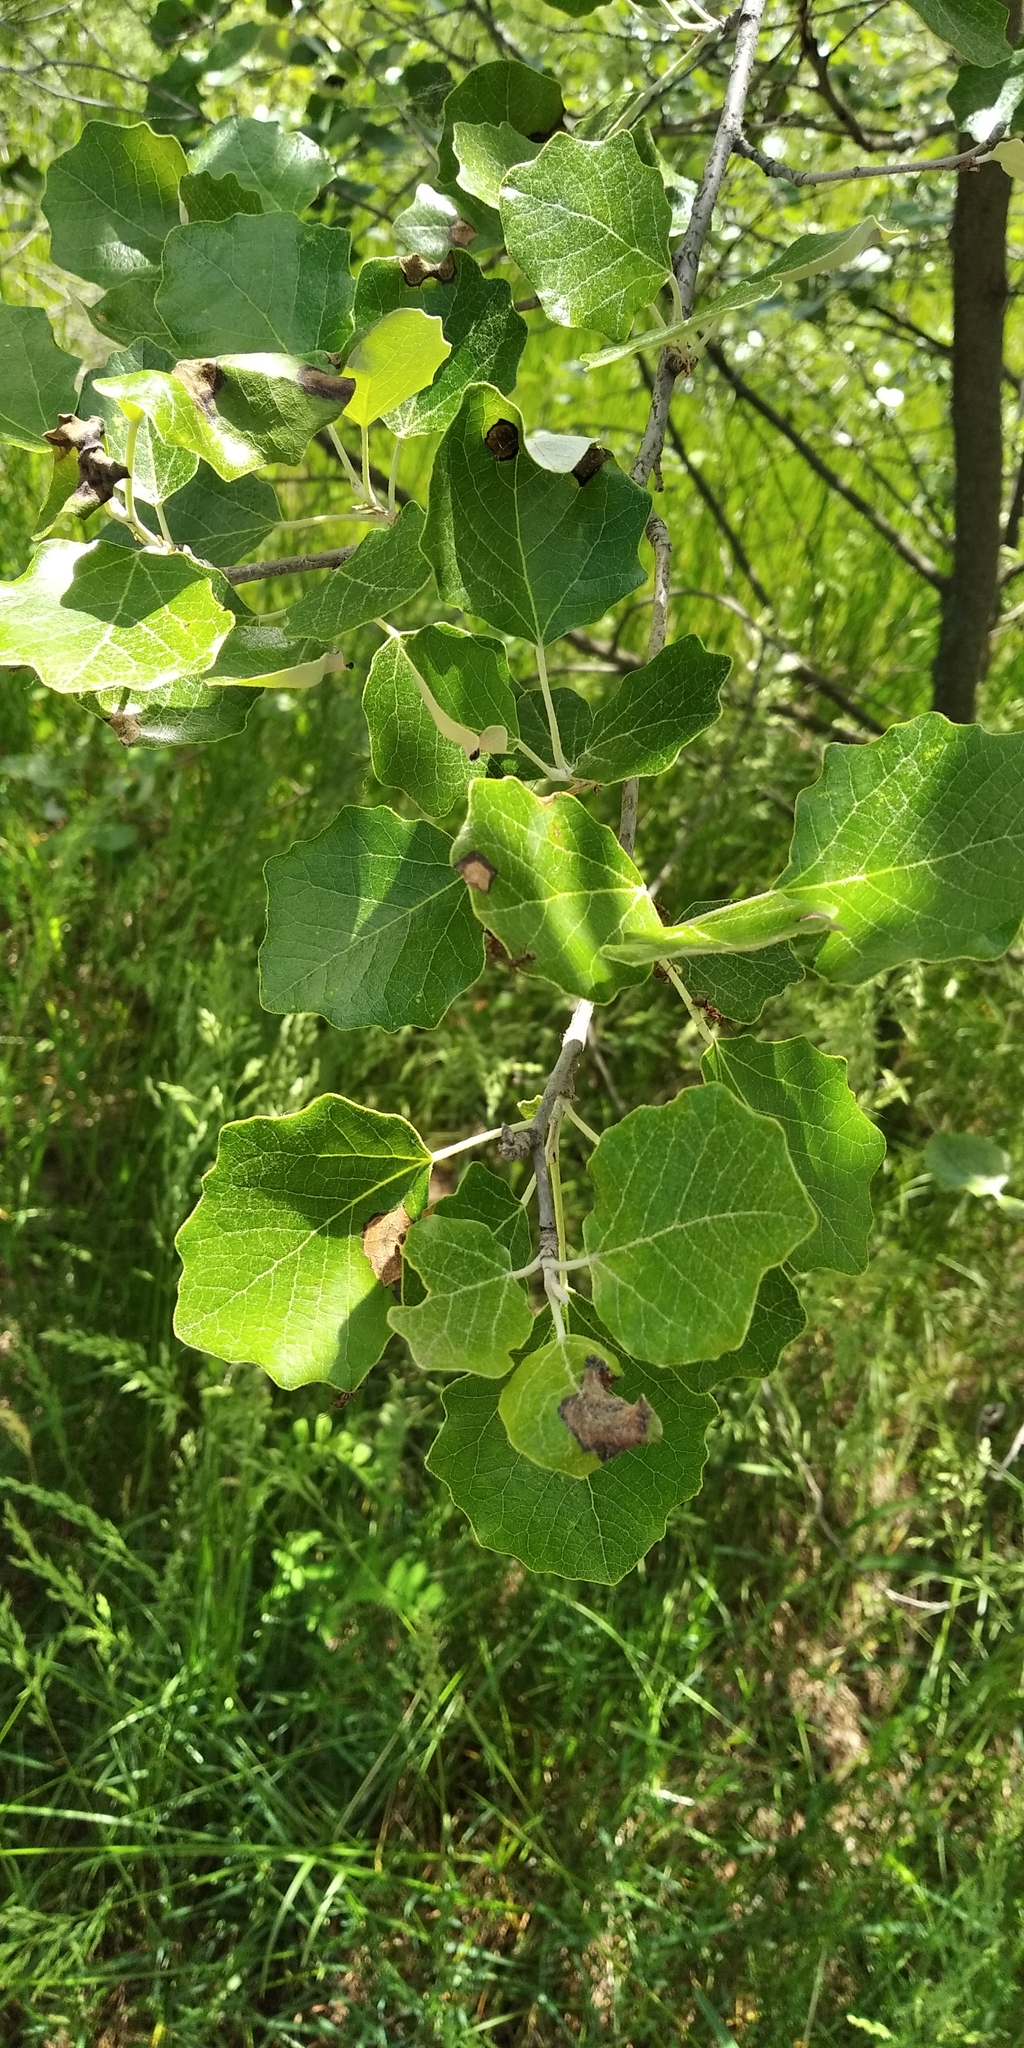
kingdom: Plantae
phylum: Tracheophyta
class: Magnoliopsida
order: Malpighiales
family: Salicaceae
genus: Populus
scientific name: Populus alba
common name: White poplar
